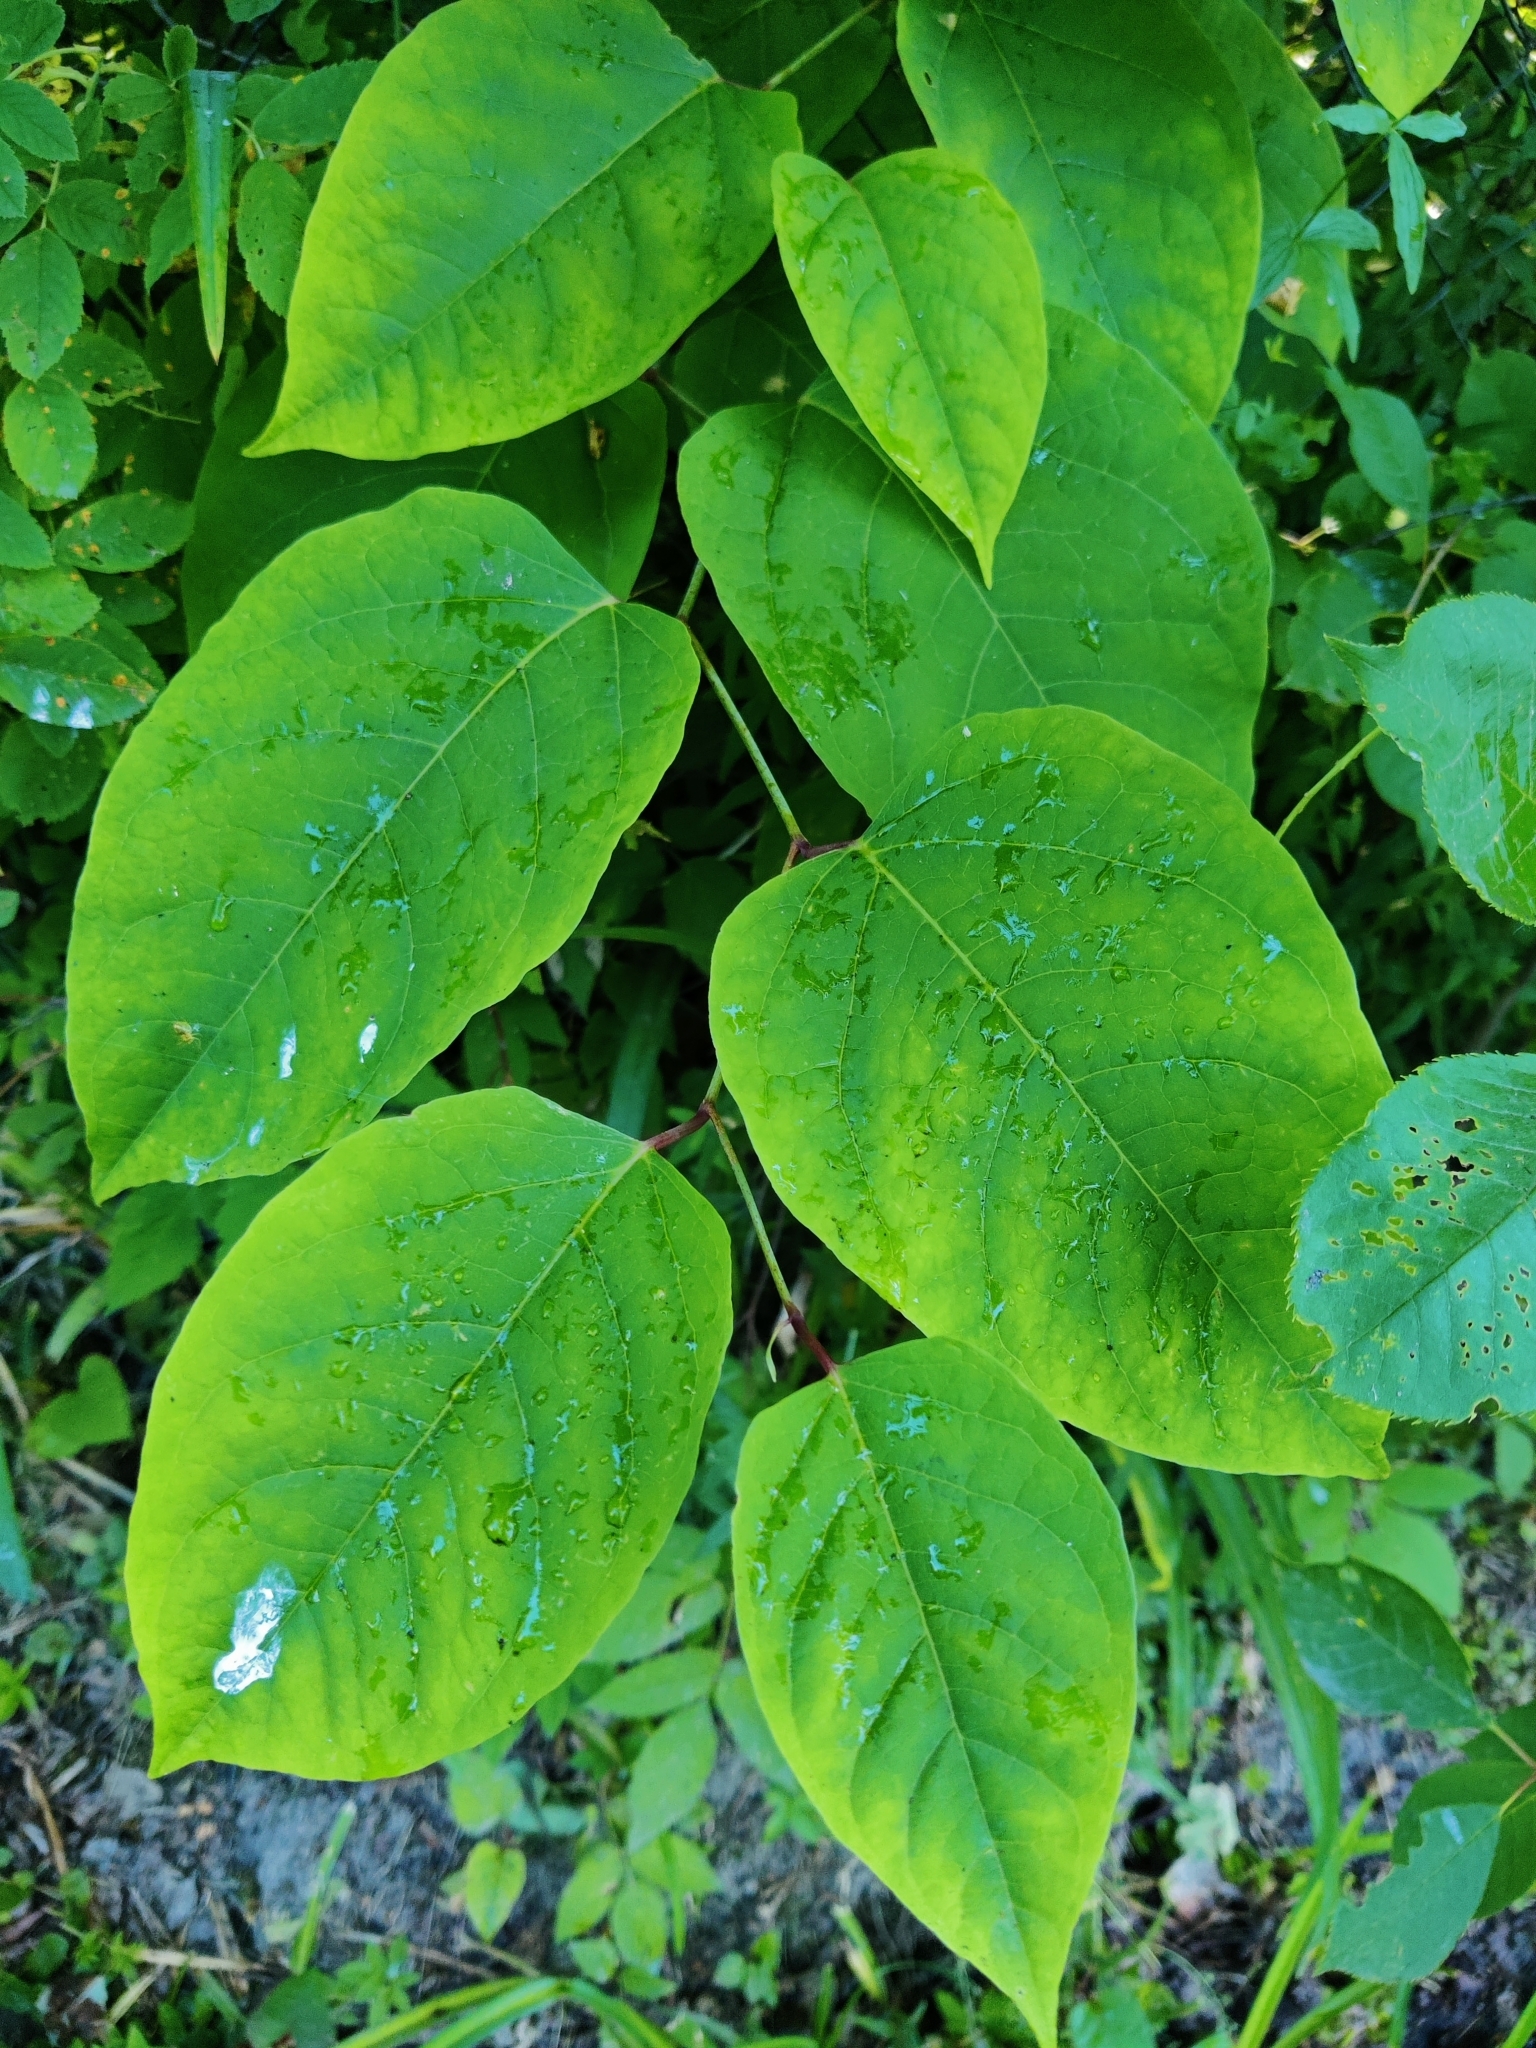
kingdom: Plantae
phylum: Tracheophyta
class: Magnoliopsida
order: Caryophyllales
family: Polygonaceae
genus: Reynoutria
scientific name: Reynoutria bohemica
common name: Bohemian knotweed
